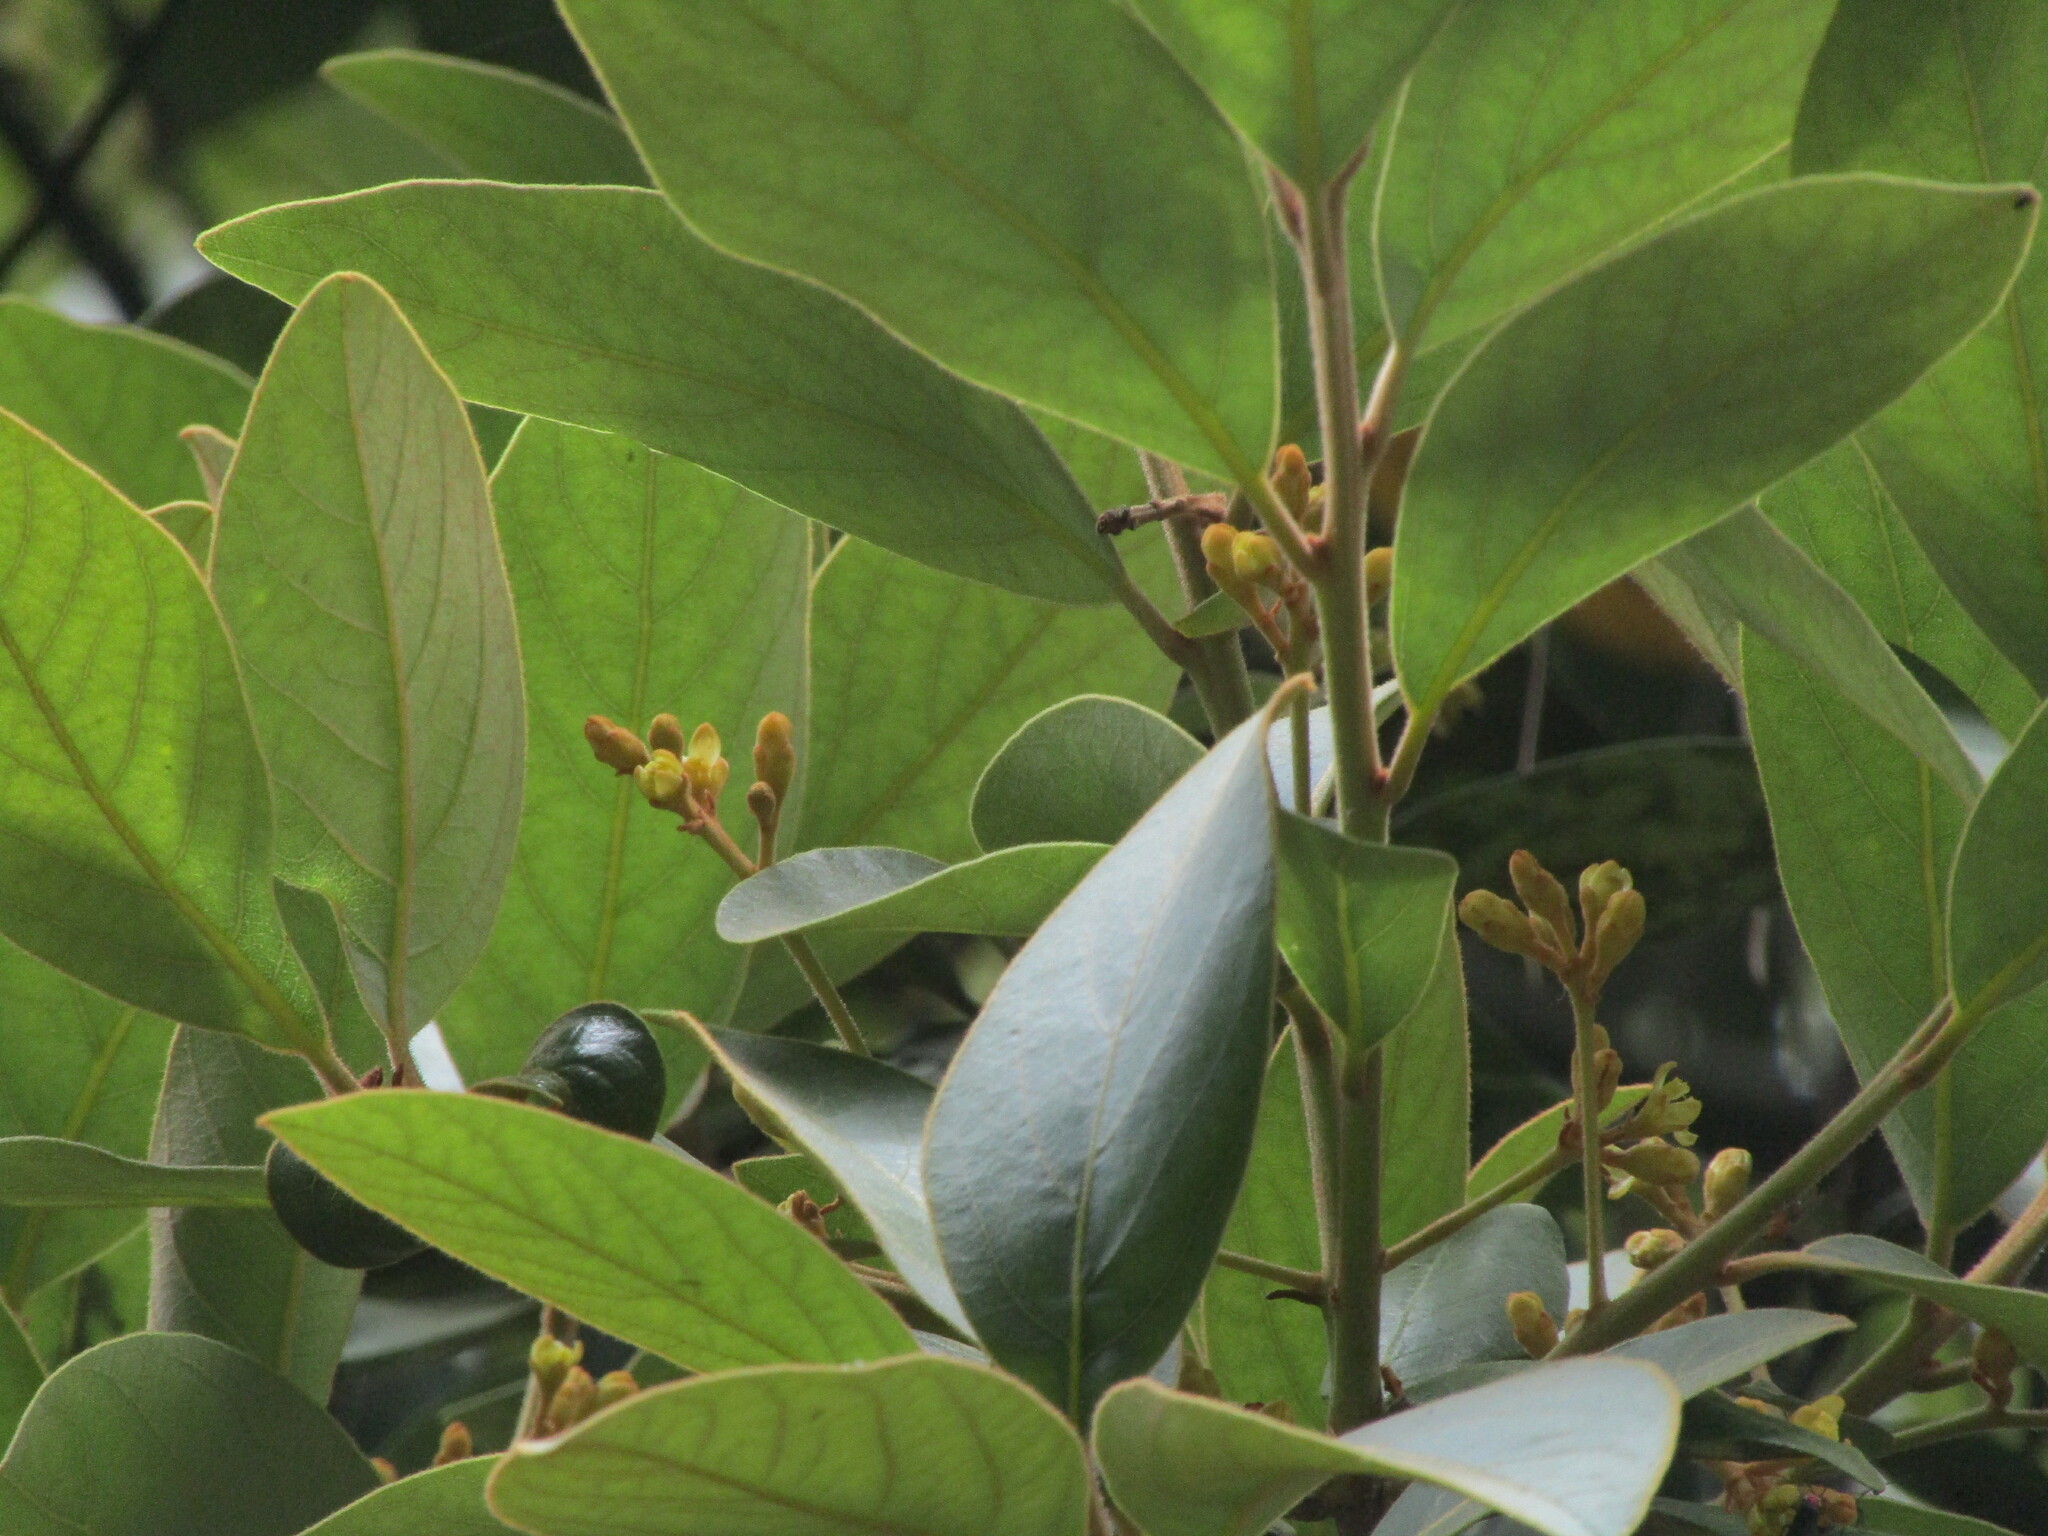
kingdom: Plantae
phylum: Tracheophyta
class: Magnoliopsida
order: Laurales
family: Lauraceae
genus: Persea
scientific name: Persea lingue
